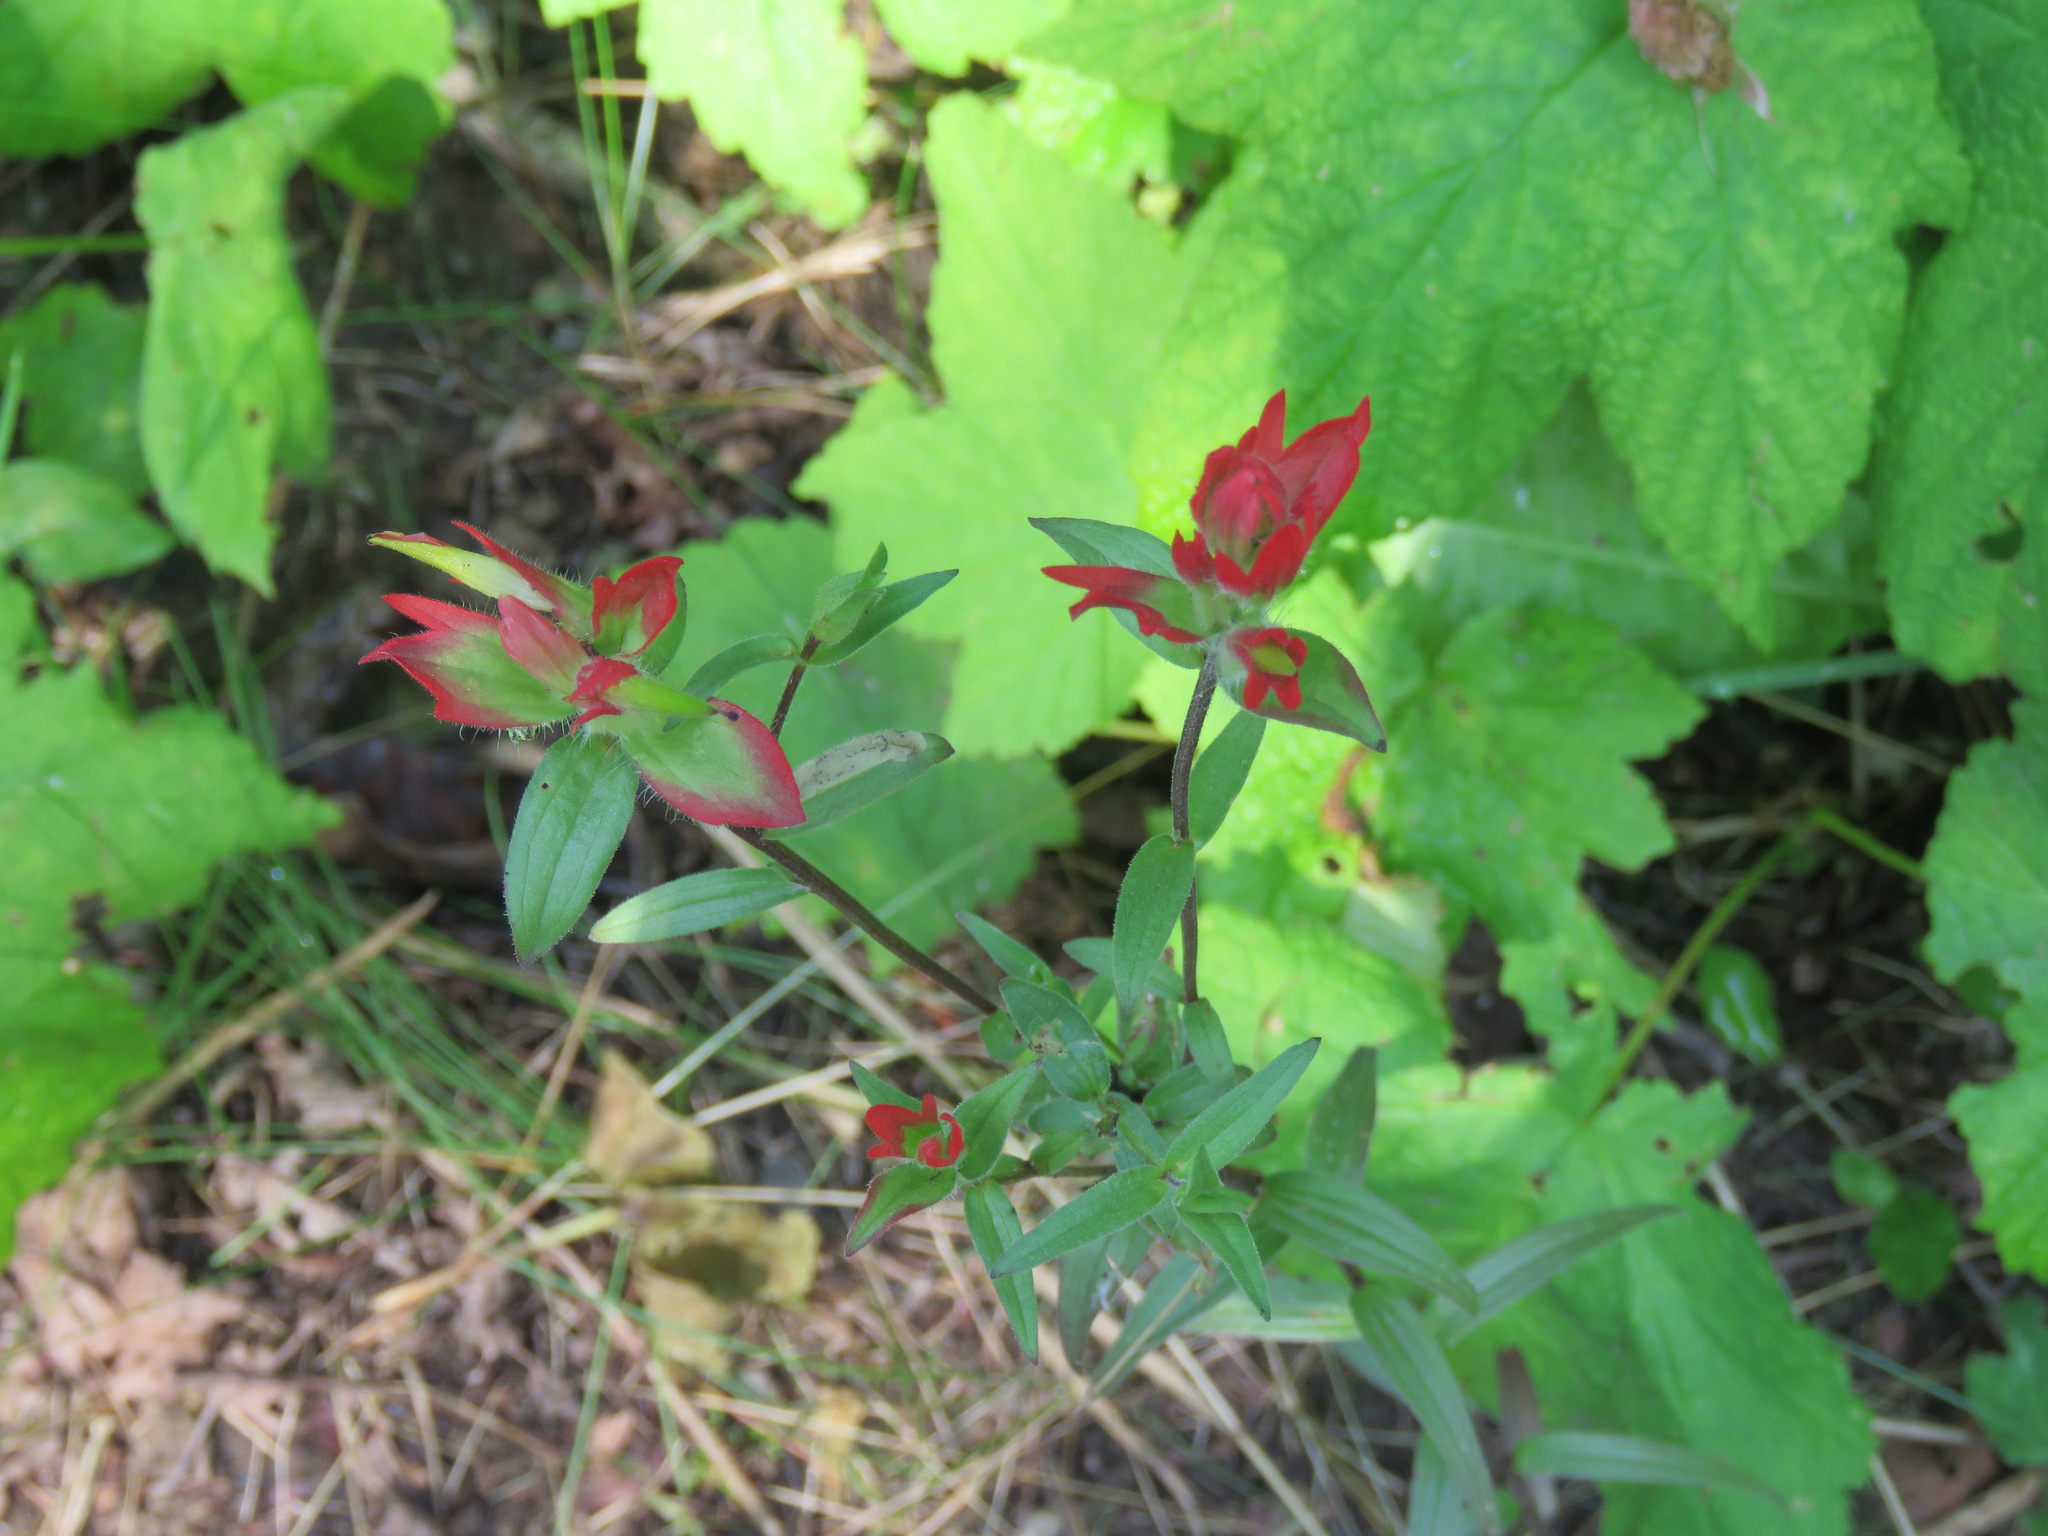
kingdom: Plantae
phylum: Tracheophyta
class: Magnoliopsida
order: Lamiales
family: Orobanchaceae
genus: Castilleja
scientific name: Castilleja miniata
